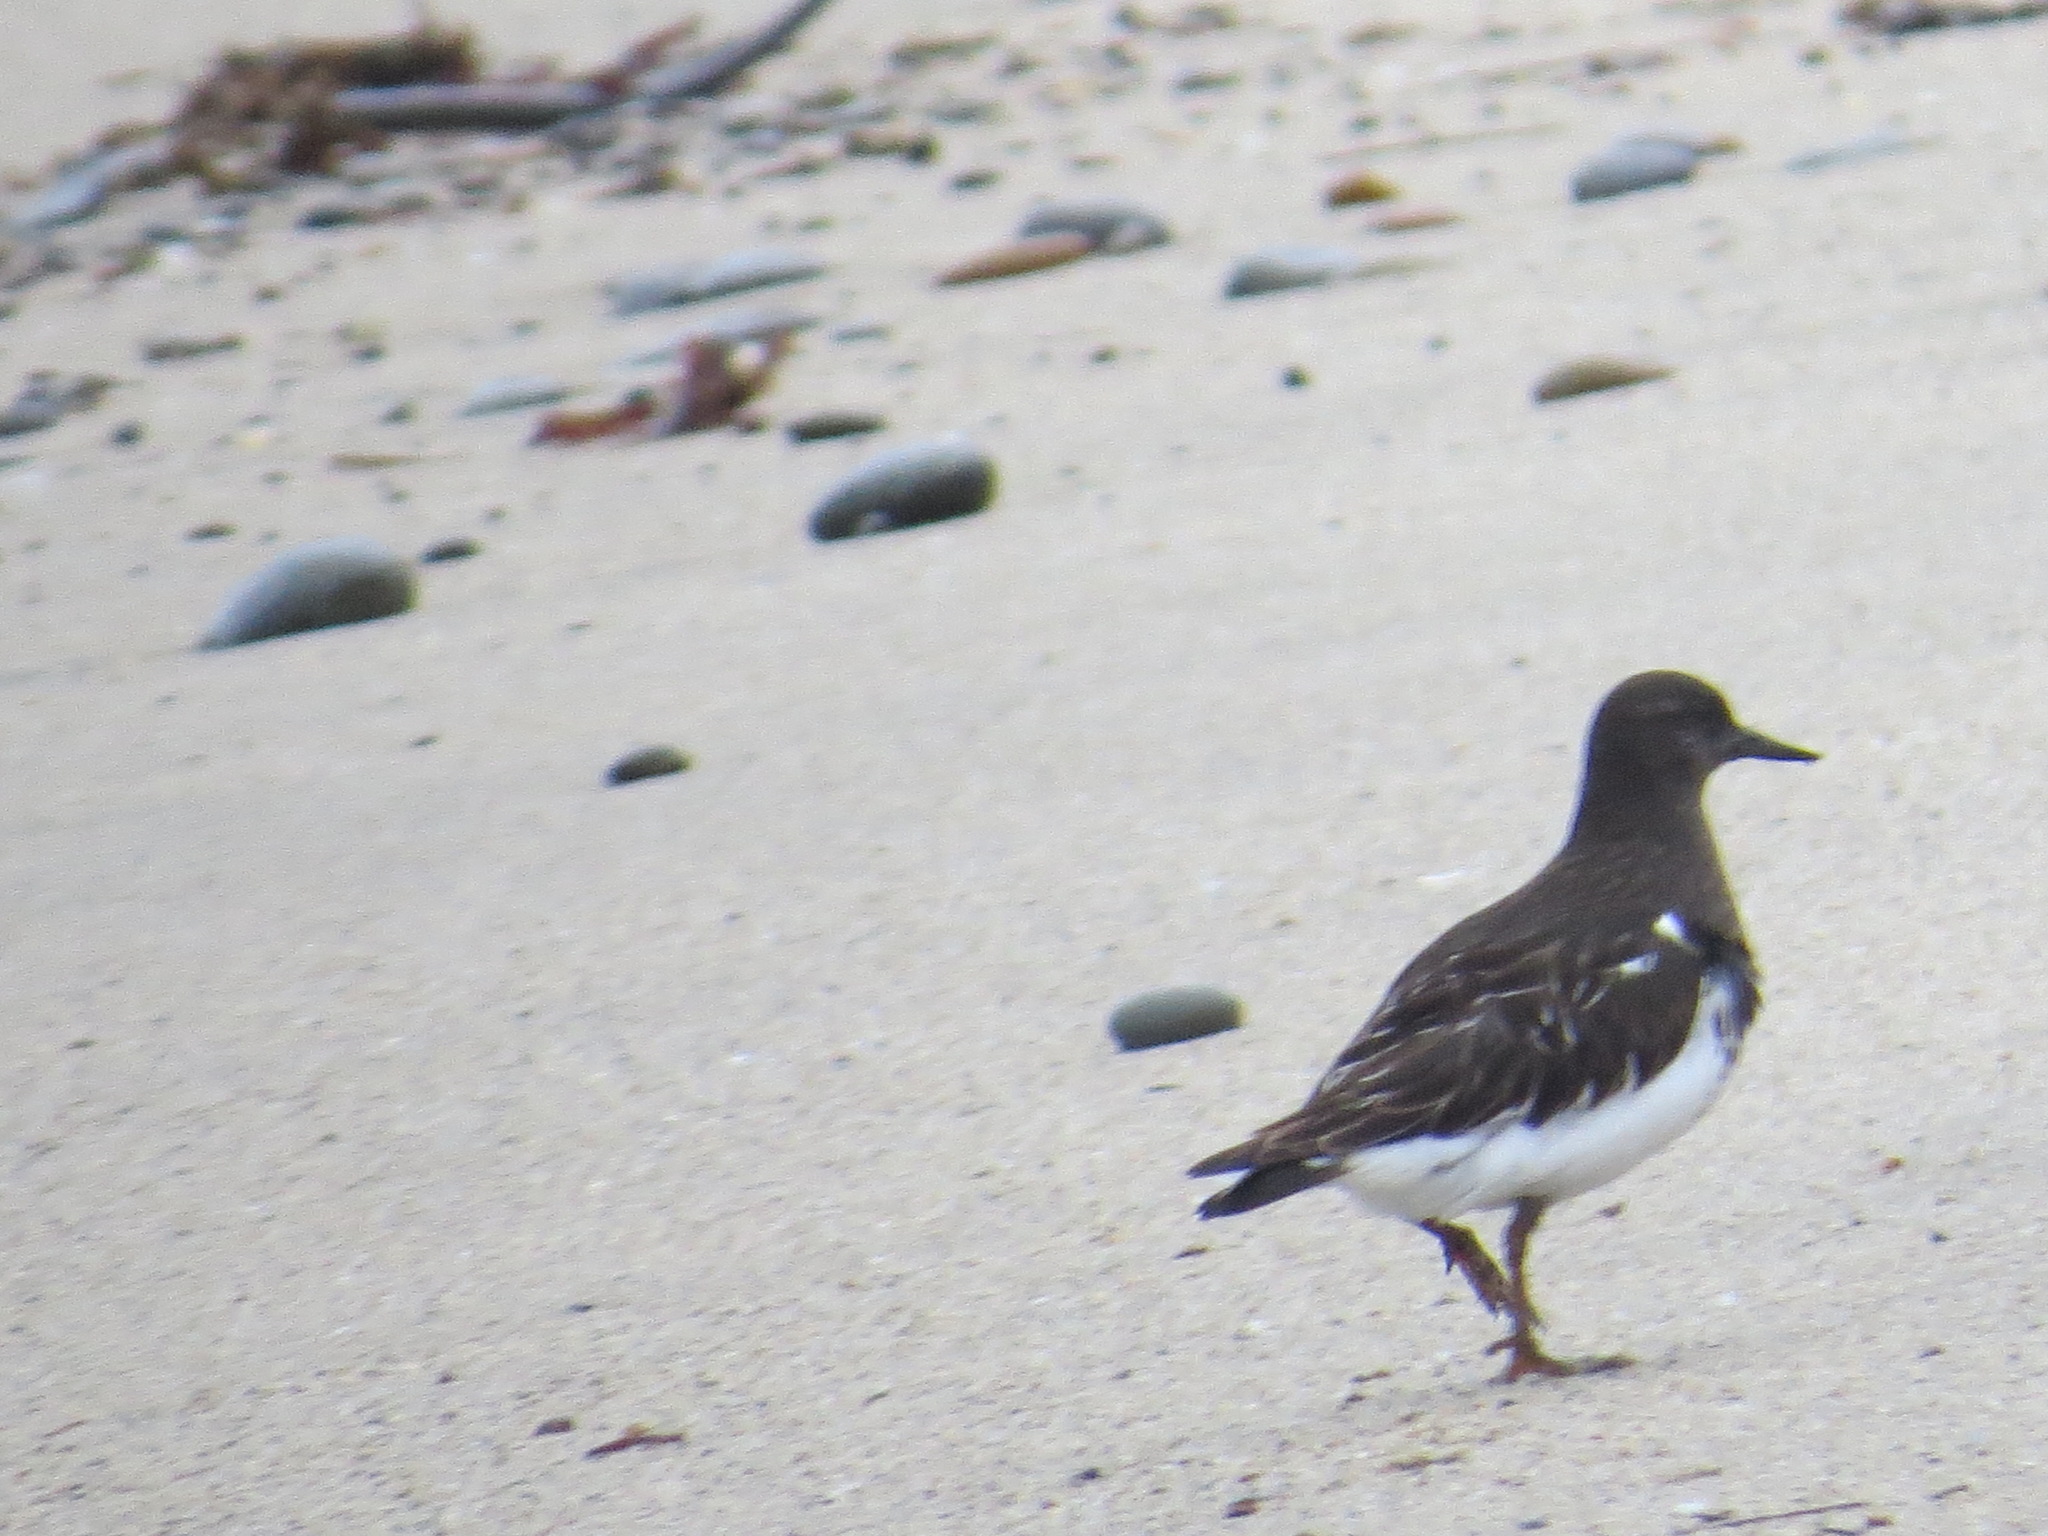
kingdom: Animalia
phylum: Chordata
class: Aves
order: Charadriiformes
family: Scolopacidae
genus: Arenaria
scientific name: Arenaria melanocephala
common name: Black turnstone
